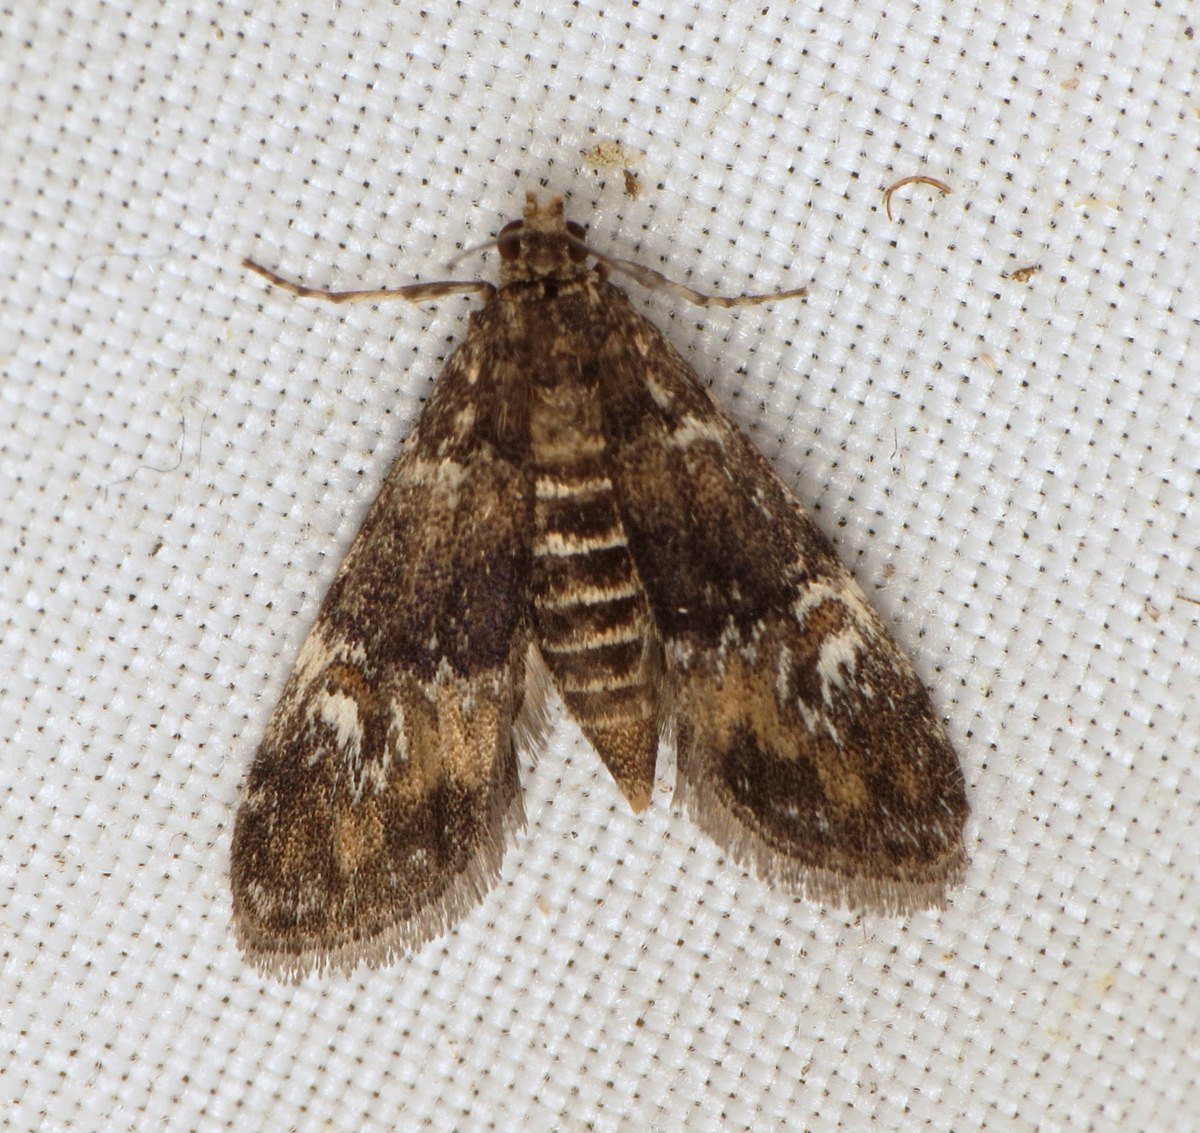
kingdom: Animalia
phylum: Arthropoda
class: Insecta
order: Lepidoptera
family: Crambidae
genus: Elophila
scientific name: Elophila obliteralis
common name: Waterlily leafcutter moth
